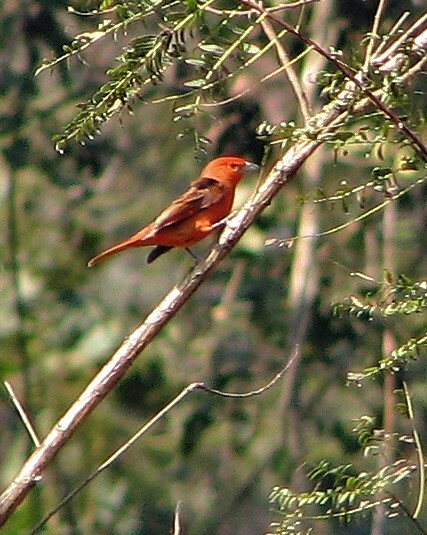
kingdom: Animalia
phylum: Chordata
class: Aves
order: Passeriformes
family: Cardinalidae
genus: Piranga
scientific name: Piranga flava
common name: Red tanager
